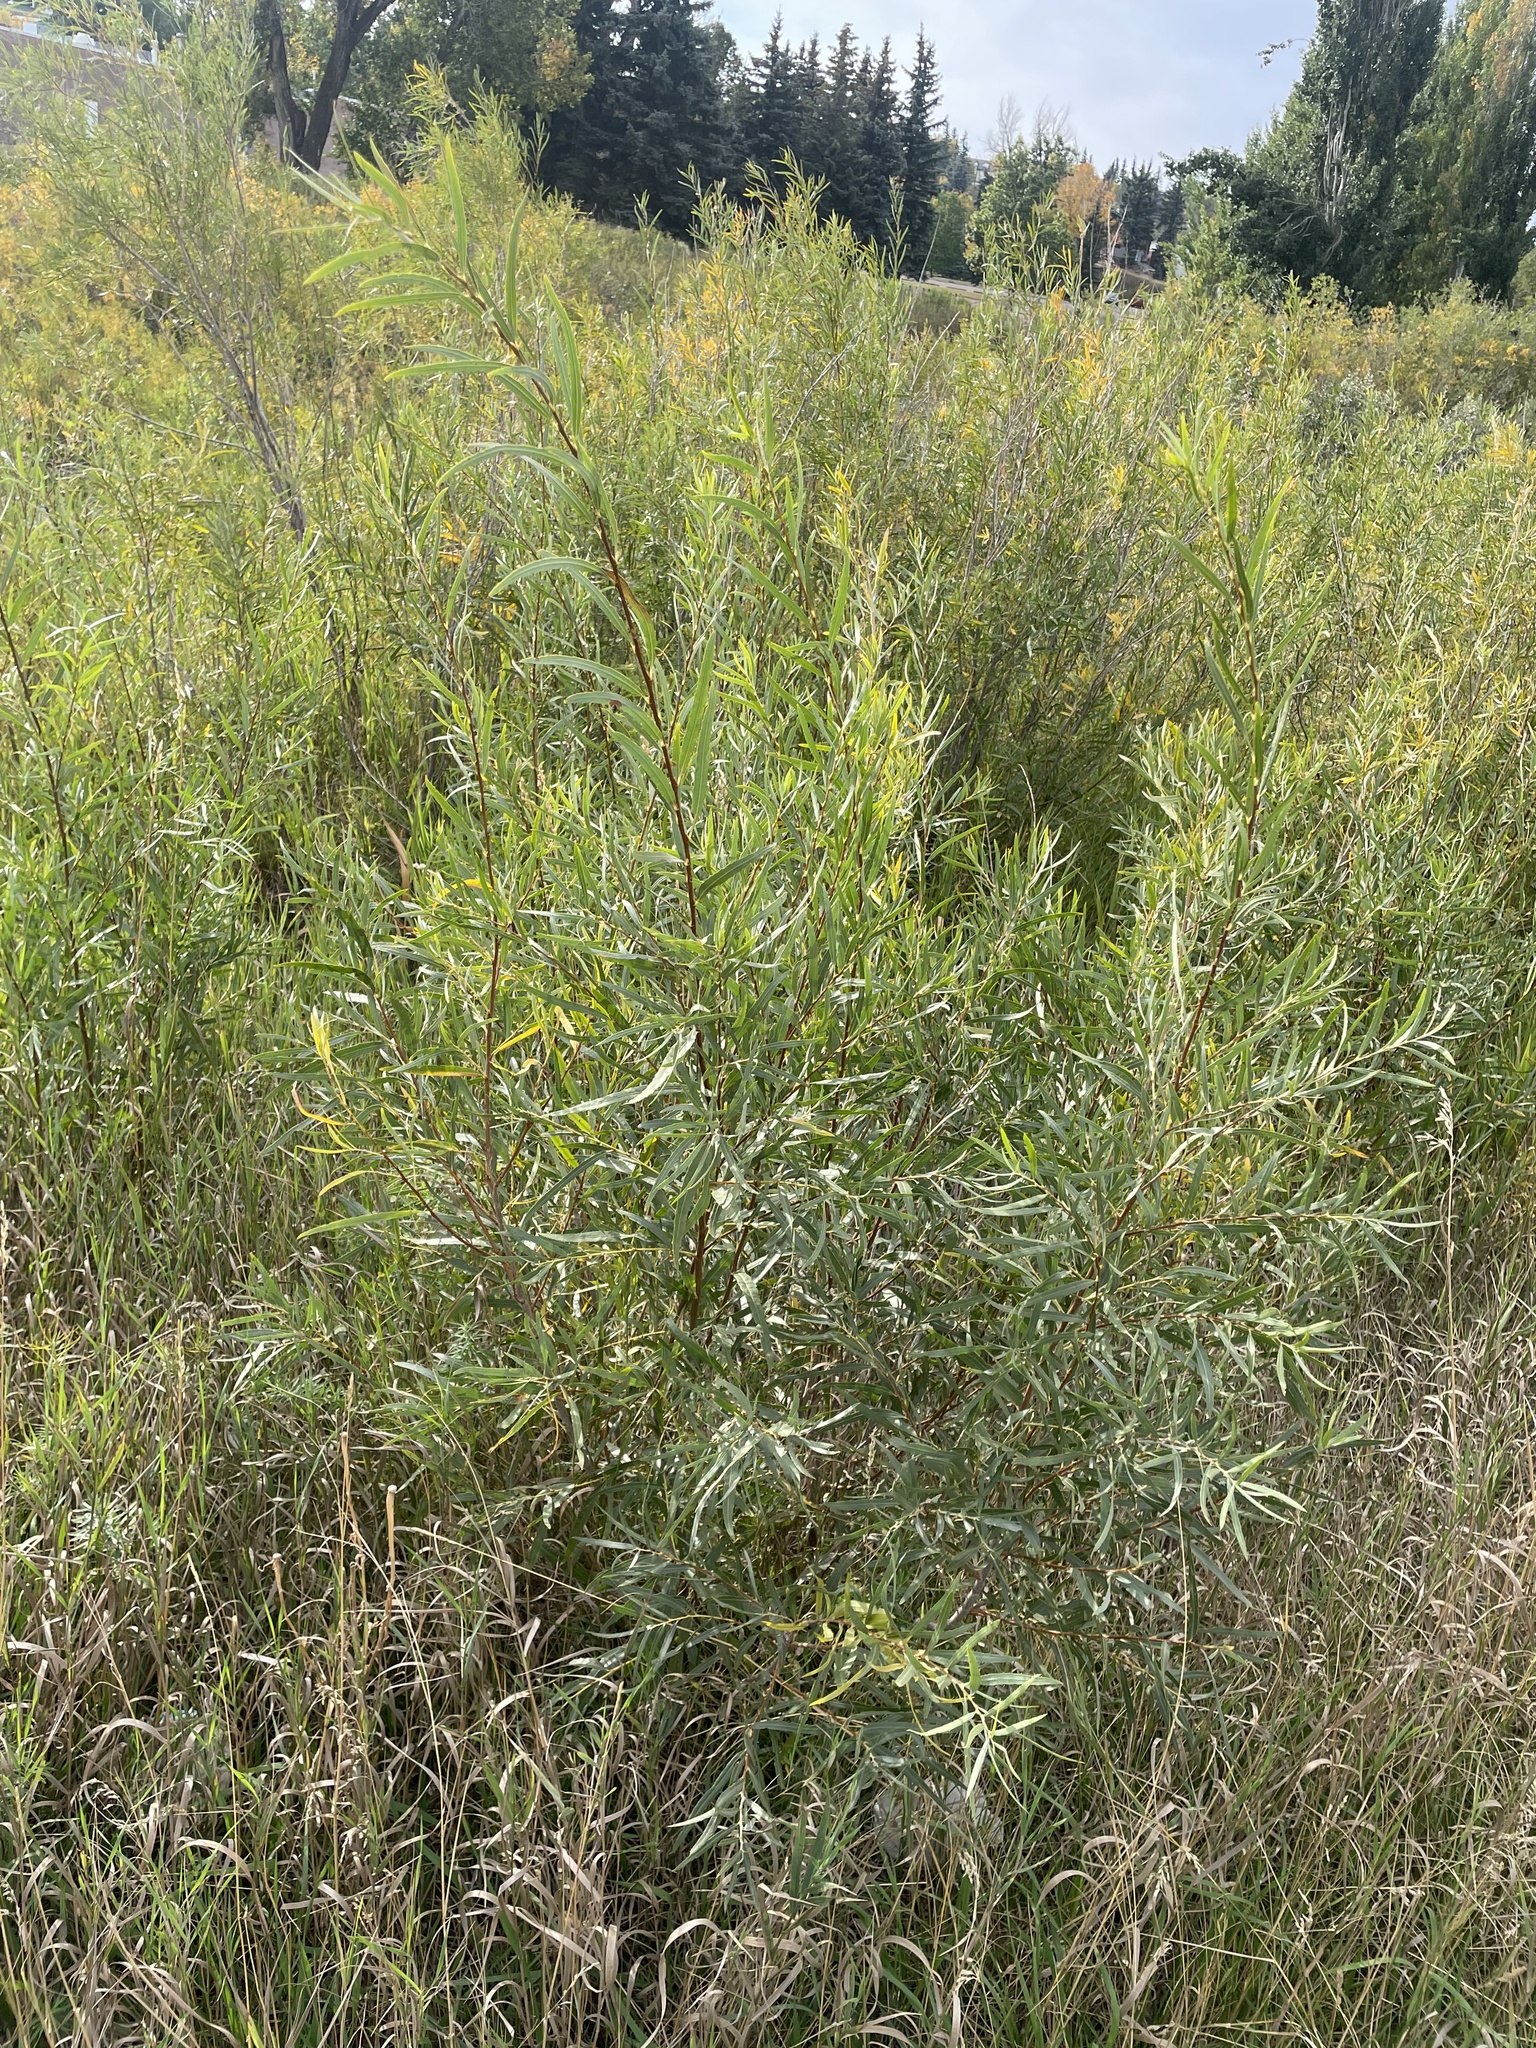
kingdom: Plantae
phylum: Tracheophyta
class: Magnoliopsida
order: Malpighiales
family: Salicaceae
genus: Salix
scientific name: Salix interior
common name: Sandbar willow
